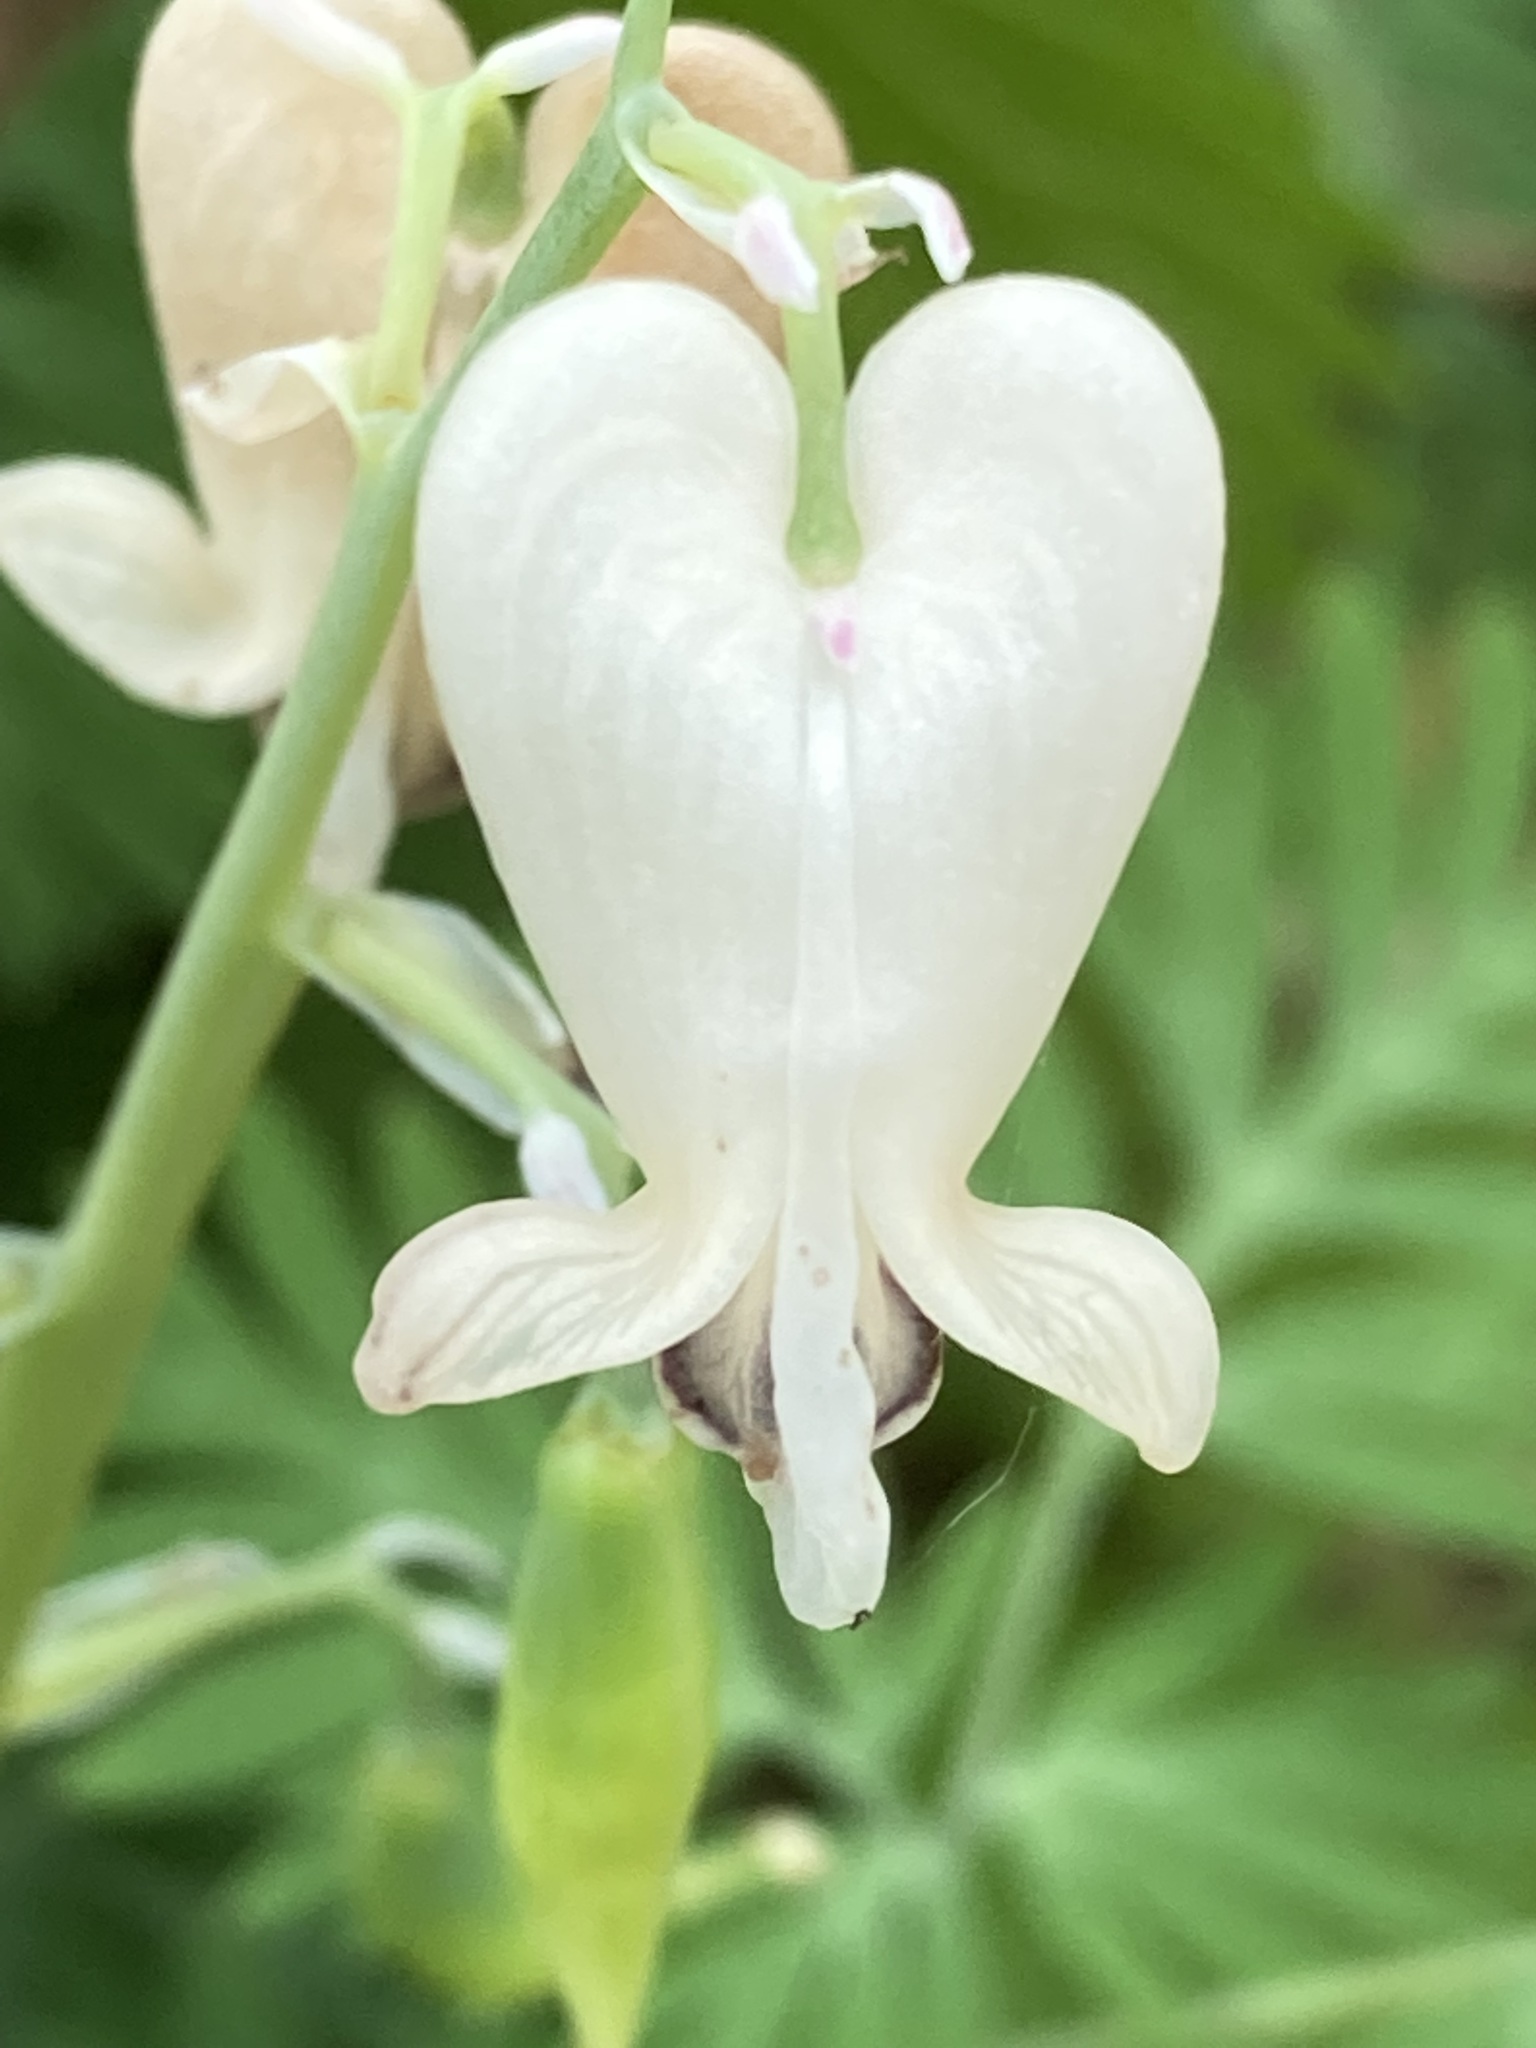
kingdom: Plantae
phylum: Tracheophyta
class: Magnoliopsida
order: Ranunculales
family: Papaveraceae
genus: Dicentra
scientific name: Dicentra canadensis
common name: Squirrel-corn
